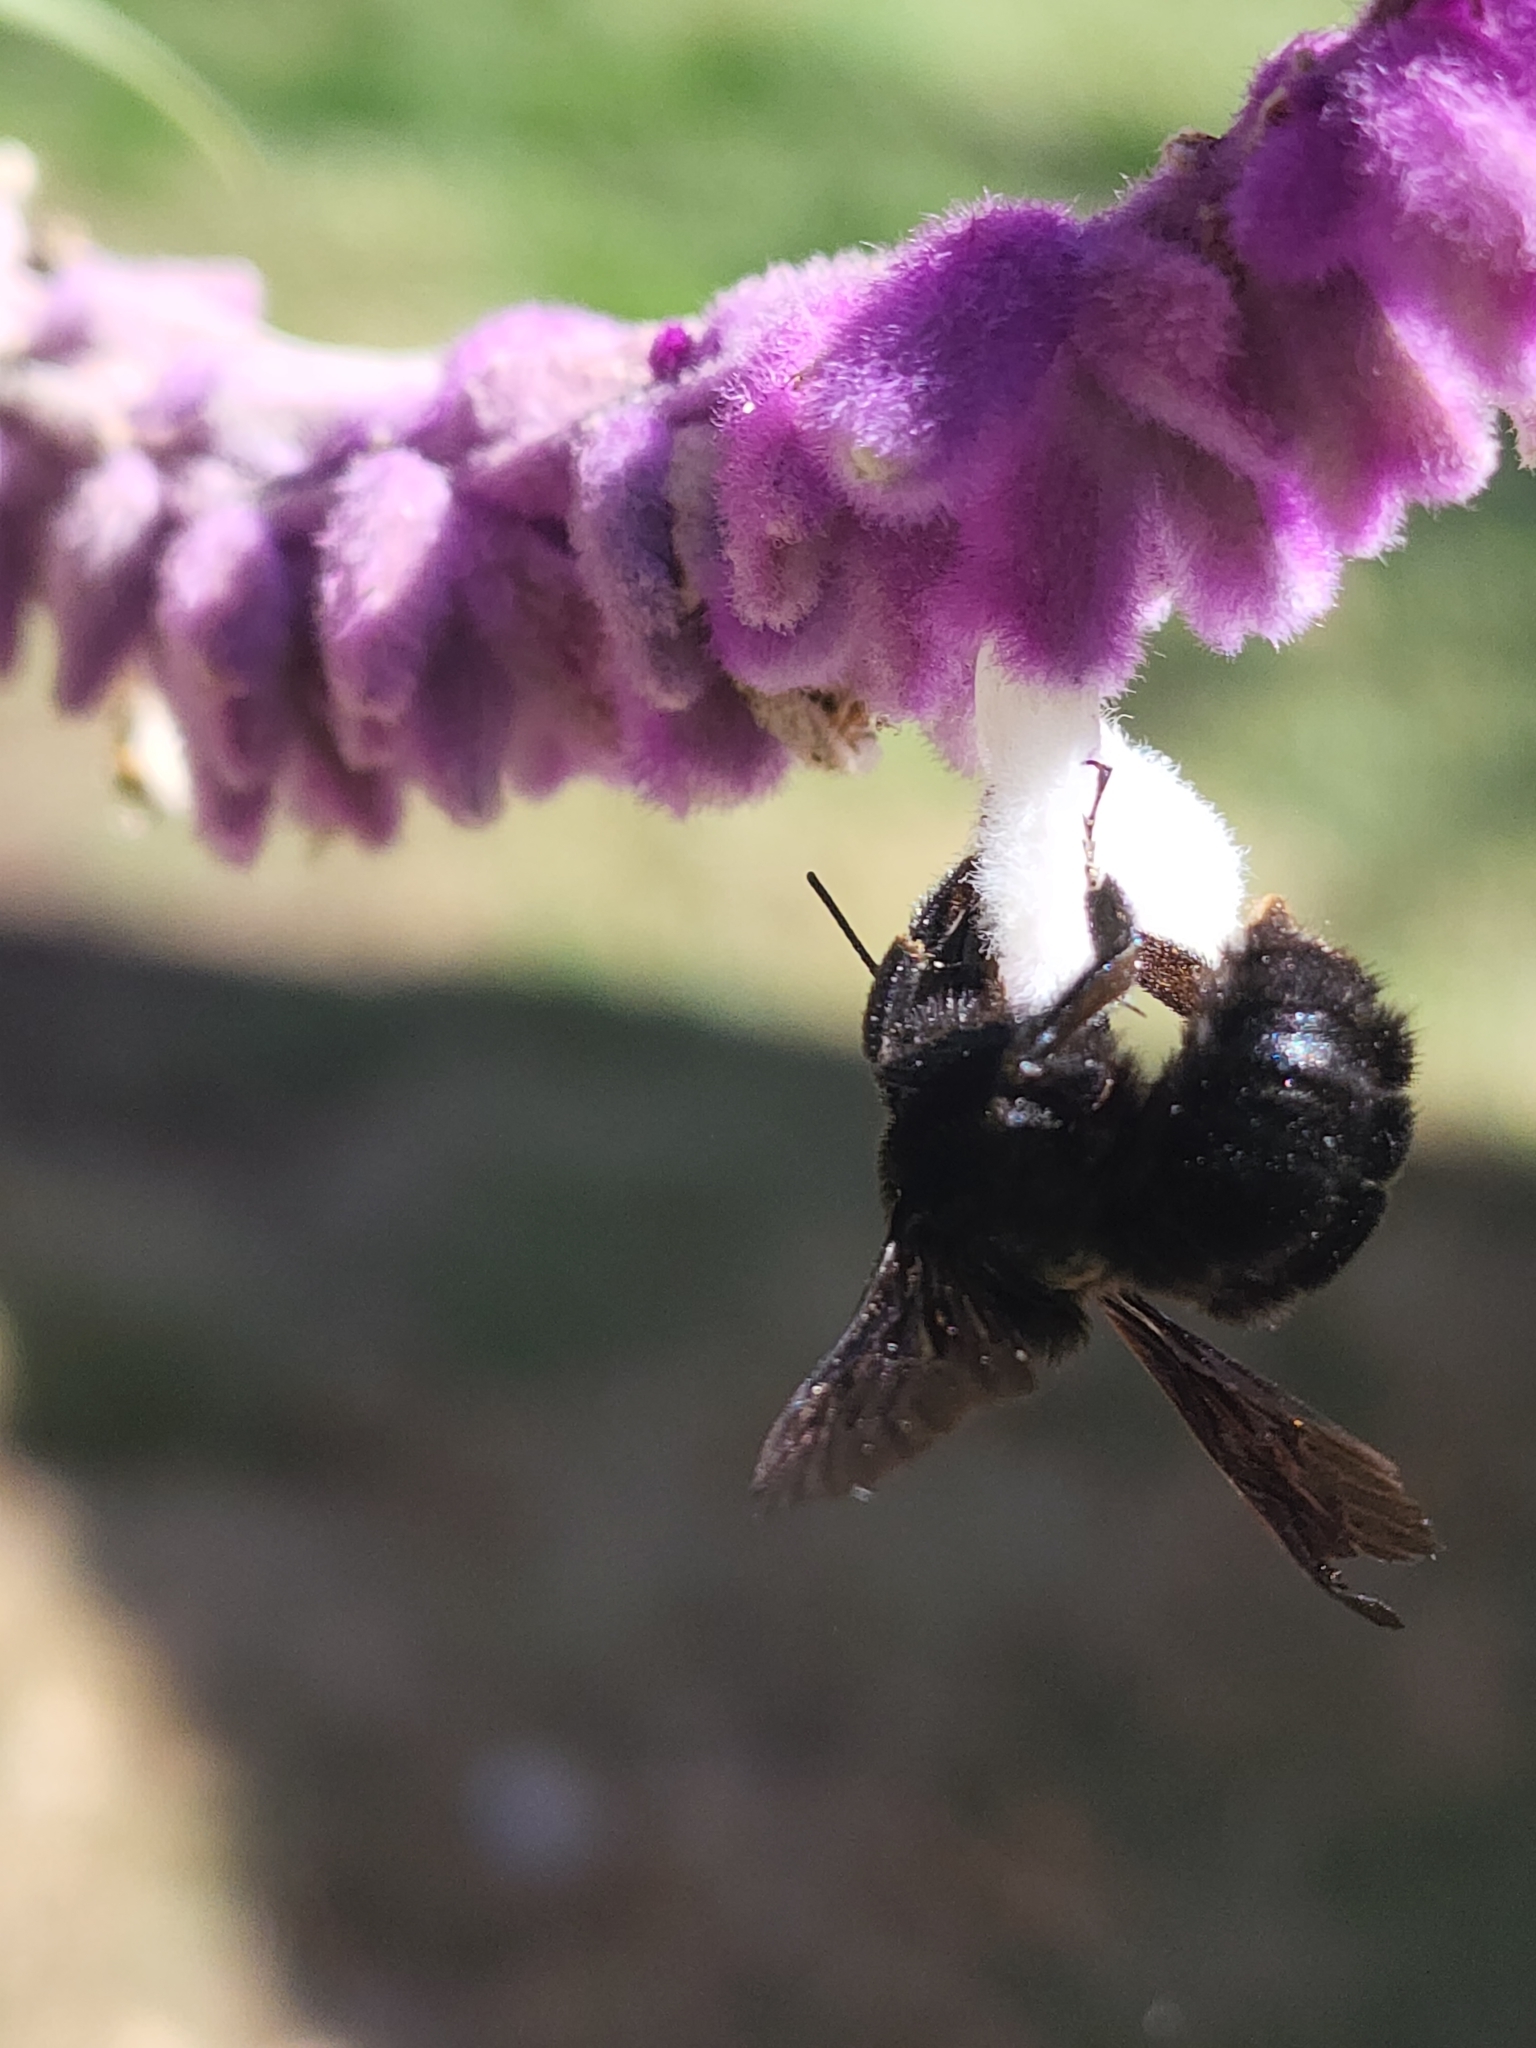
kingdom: Animalia
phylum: Arthropoda
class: Insecta
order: Hymenoptera
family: Apidae
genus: Bombus
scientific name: Bombus pauloensis
